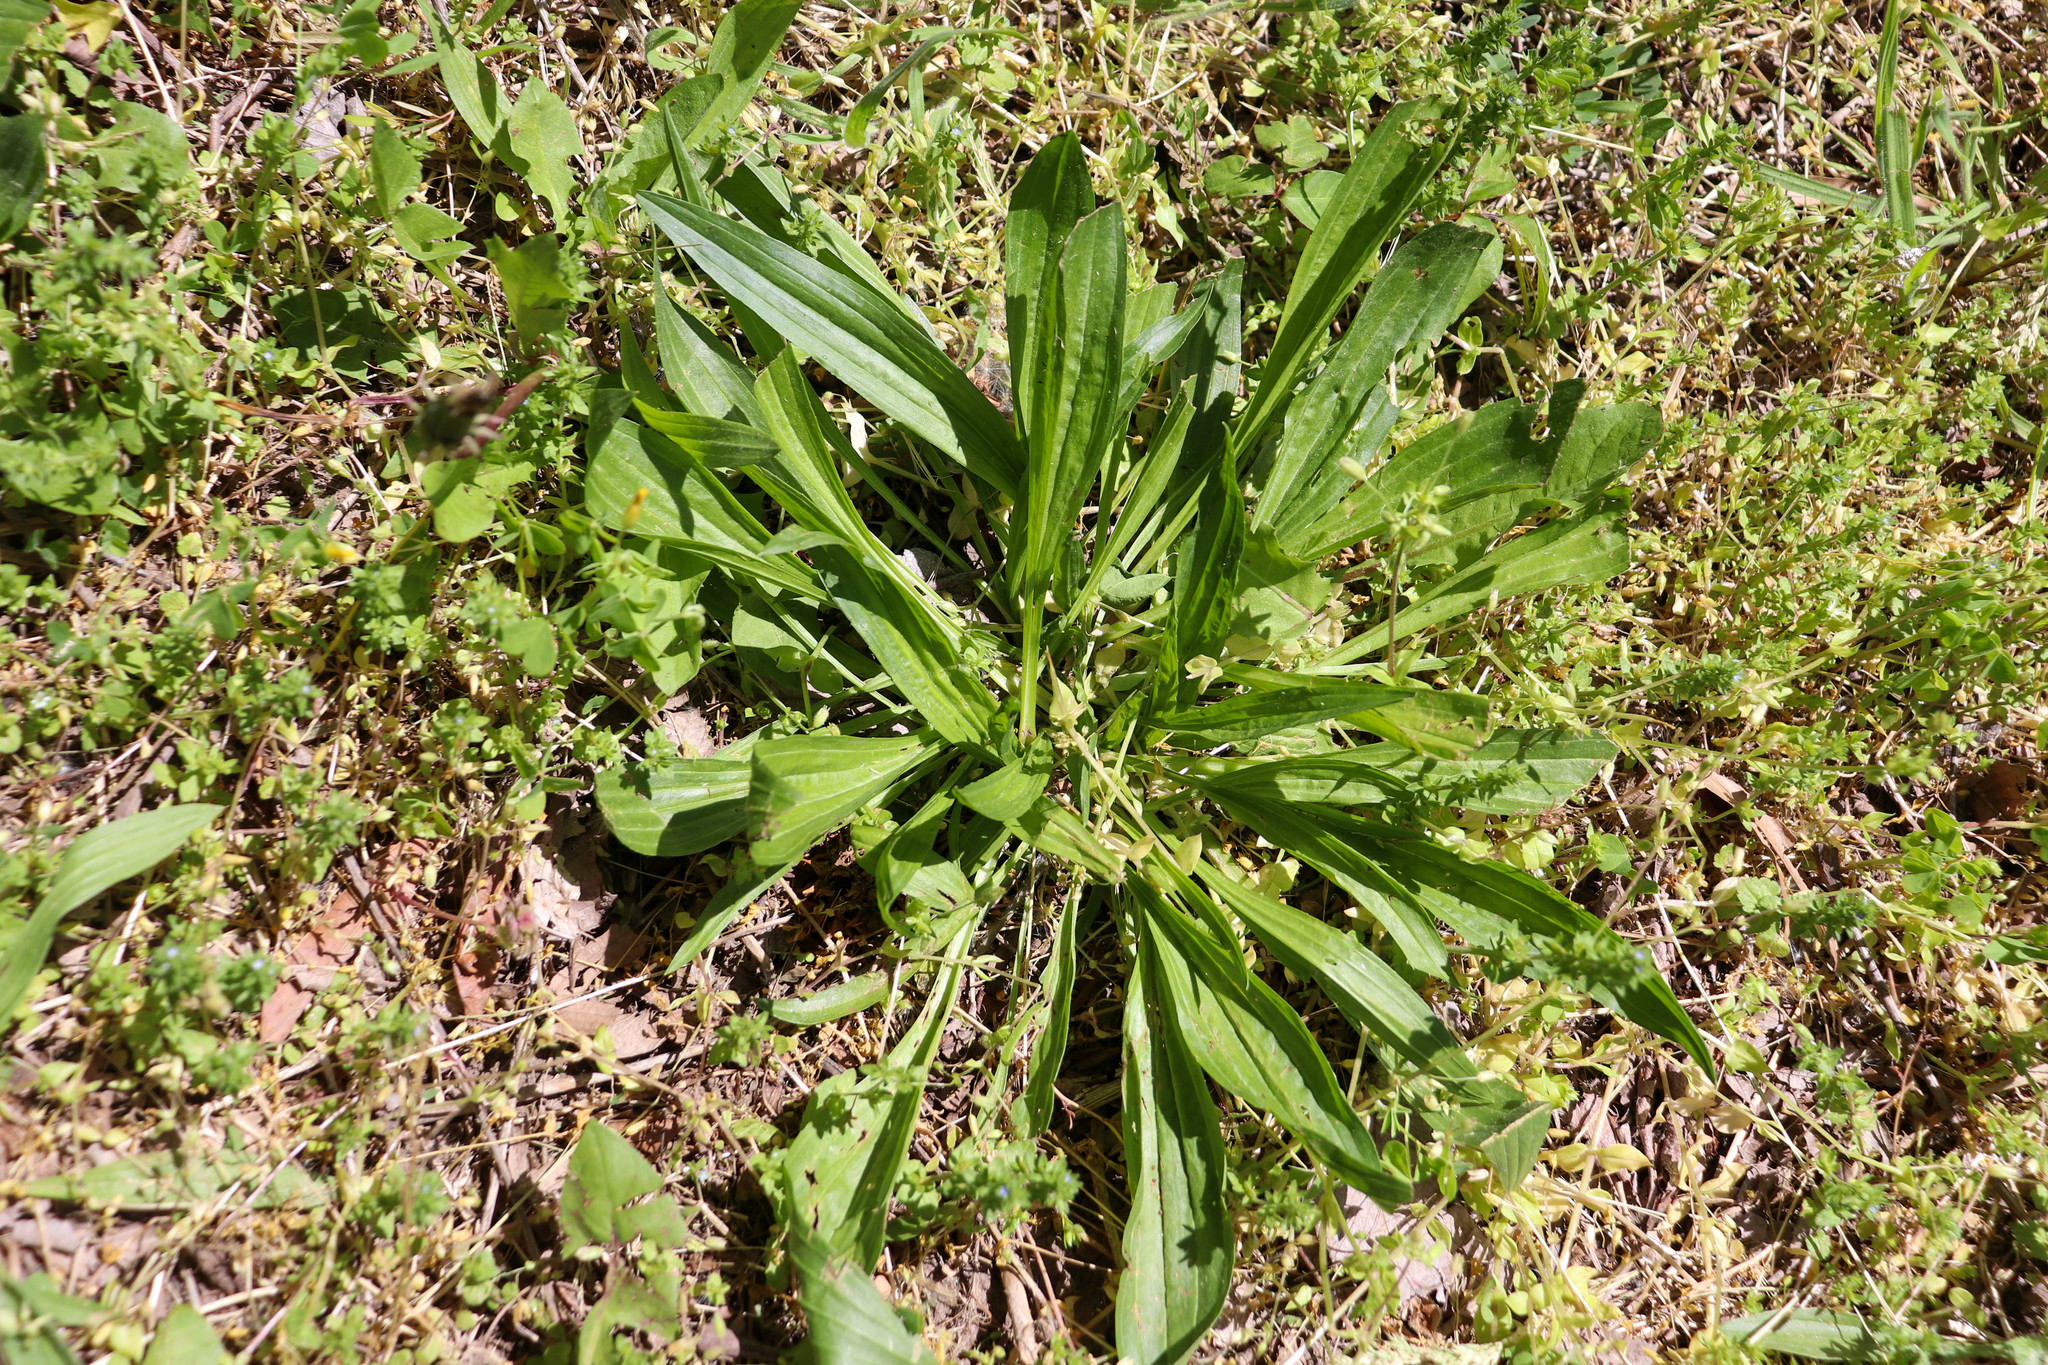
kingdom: Plantae
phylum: Tracheophyta
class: Magnoliopsida
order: Lamiales
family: Plantaginaceae
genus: Plantago
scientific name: Plantago lanceolata
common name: Ribwort plantain
